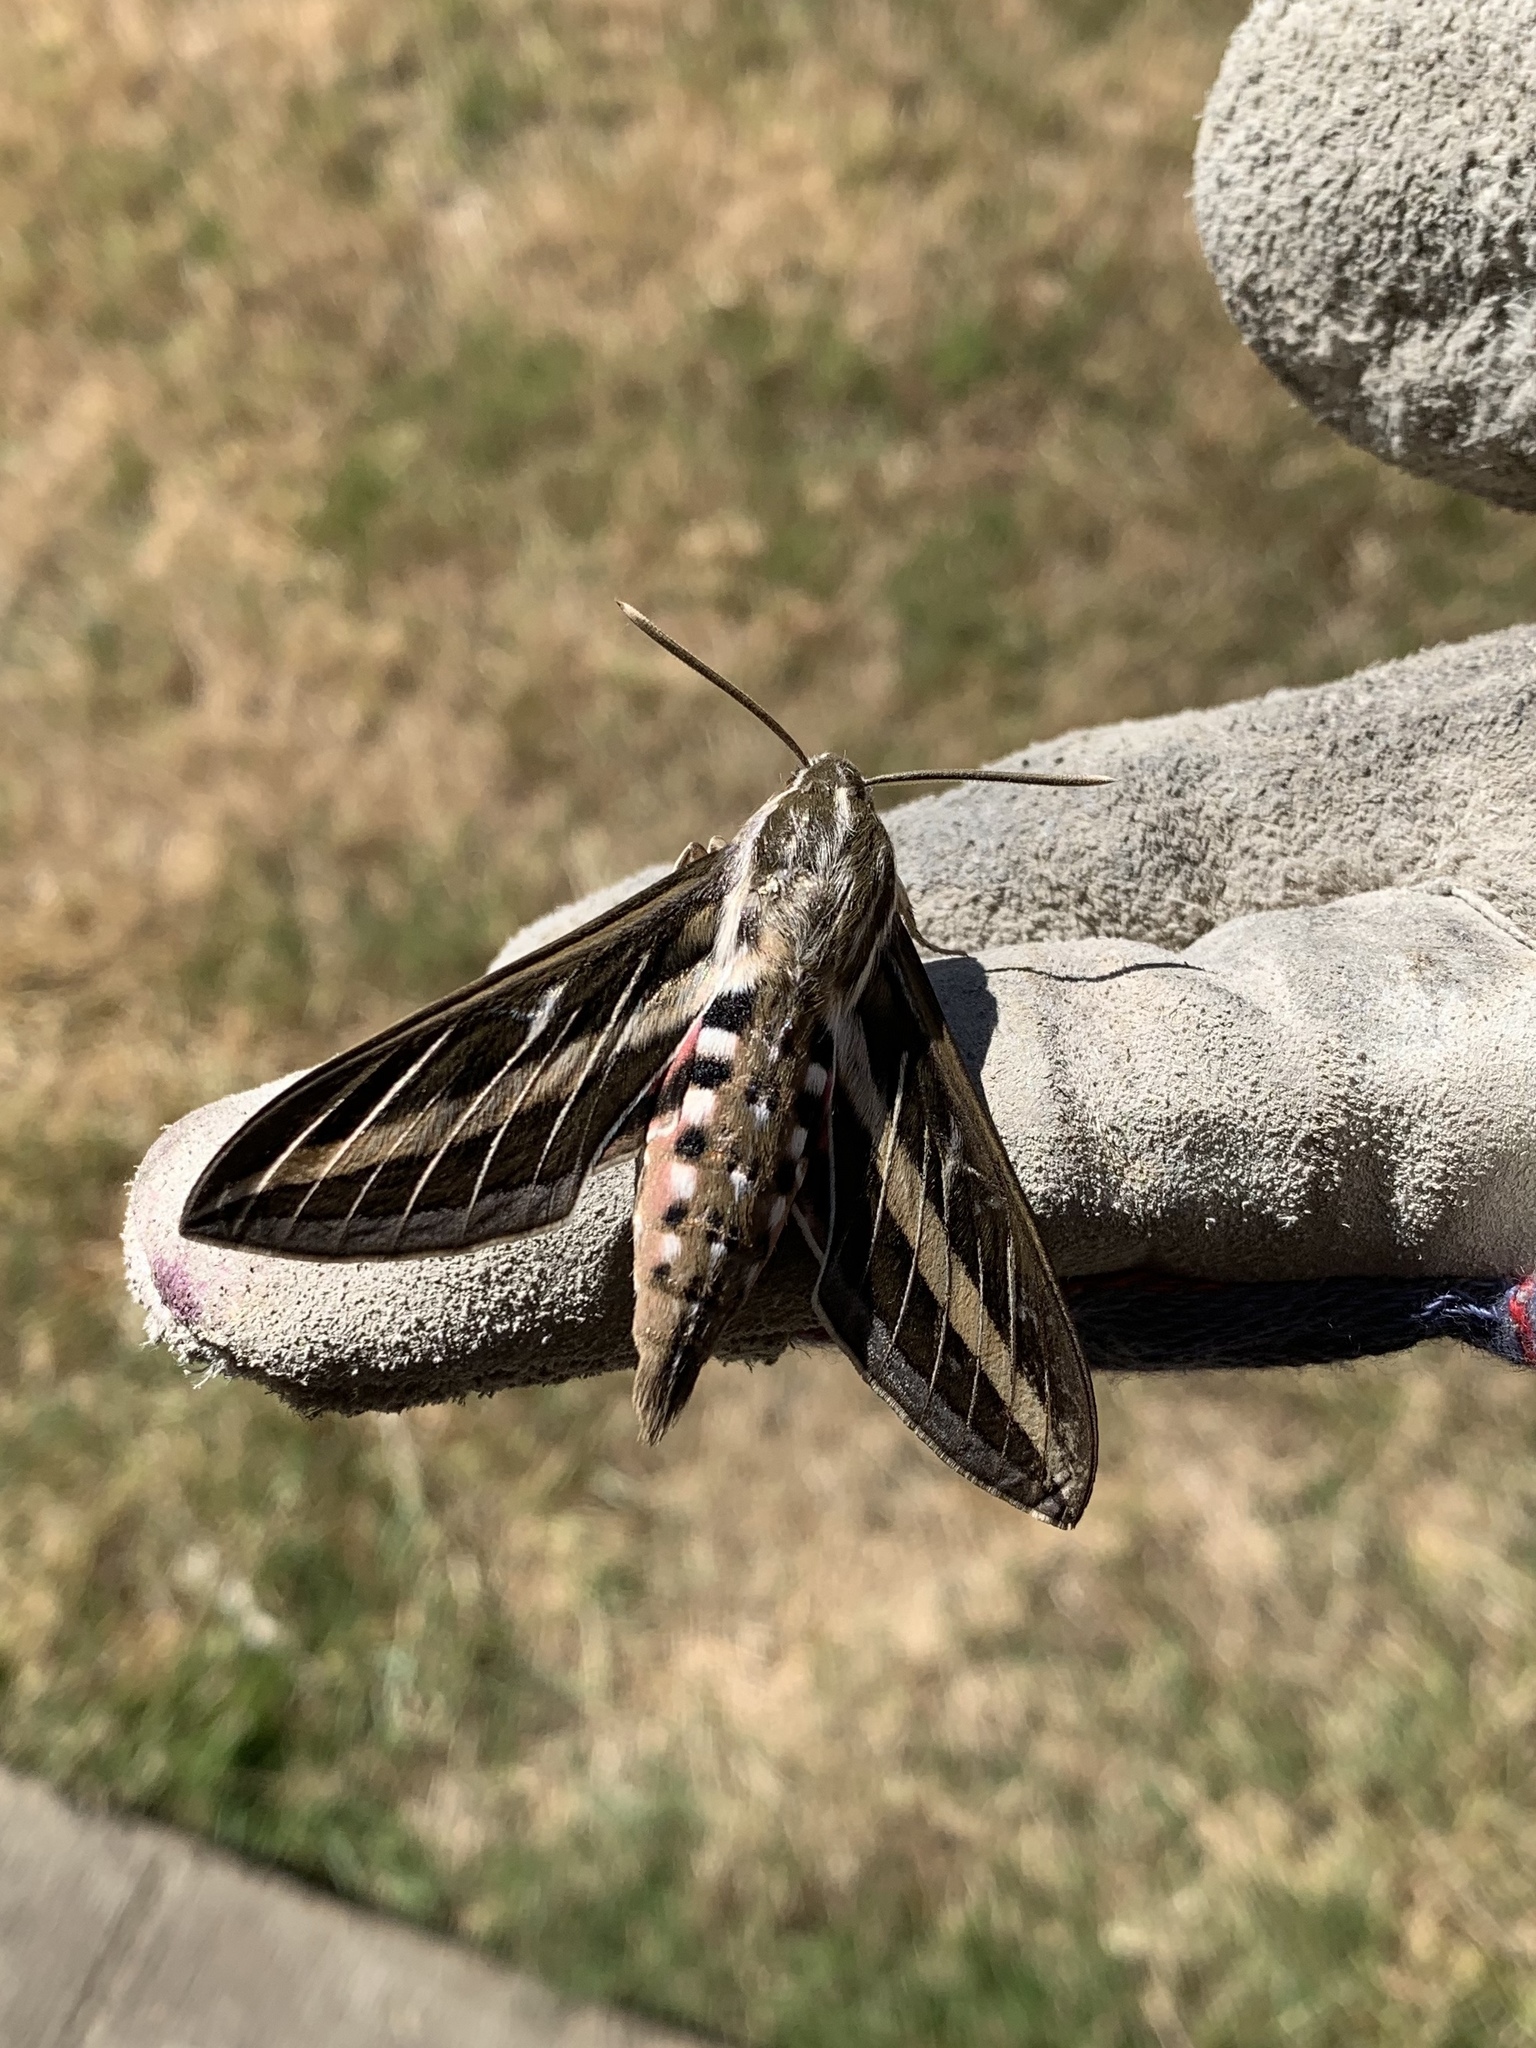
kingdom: Animalia
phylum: Arthropoda
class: Insecta
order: Lepidoptera
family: Sphingidae
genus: Hyles
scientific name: Hyles lineata
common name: White-lined sphinx
